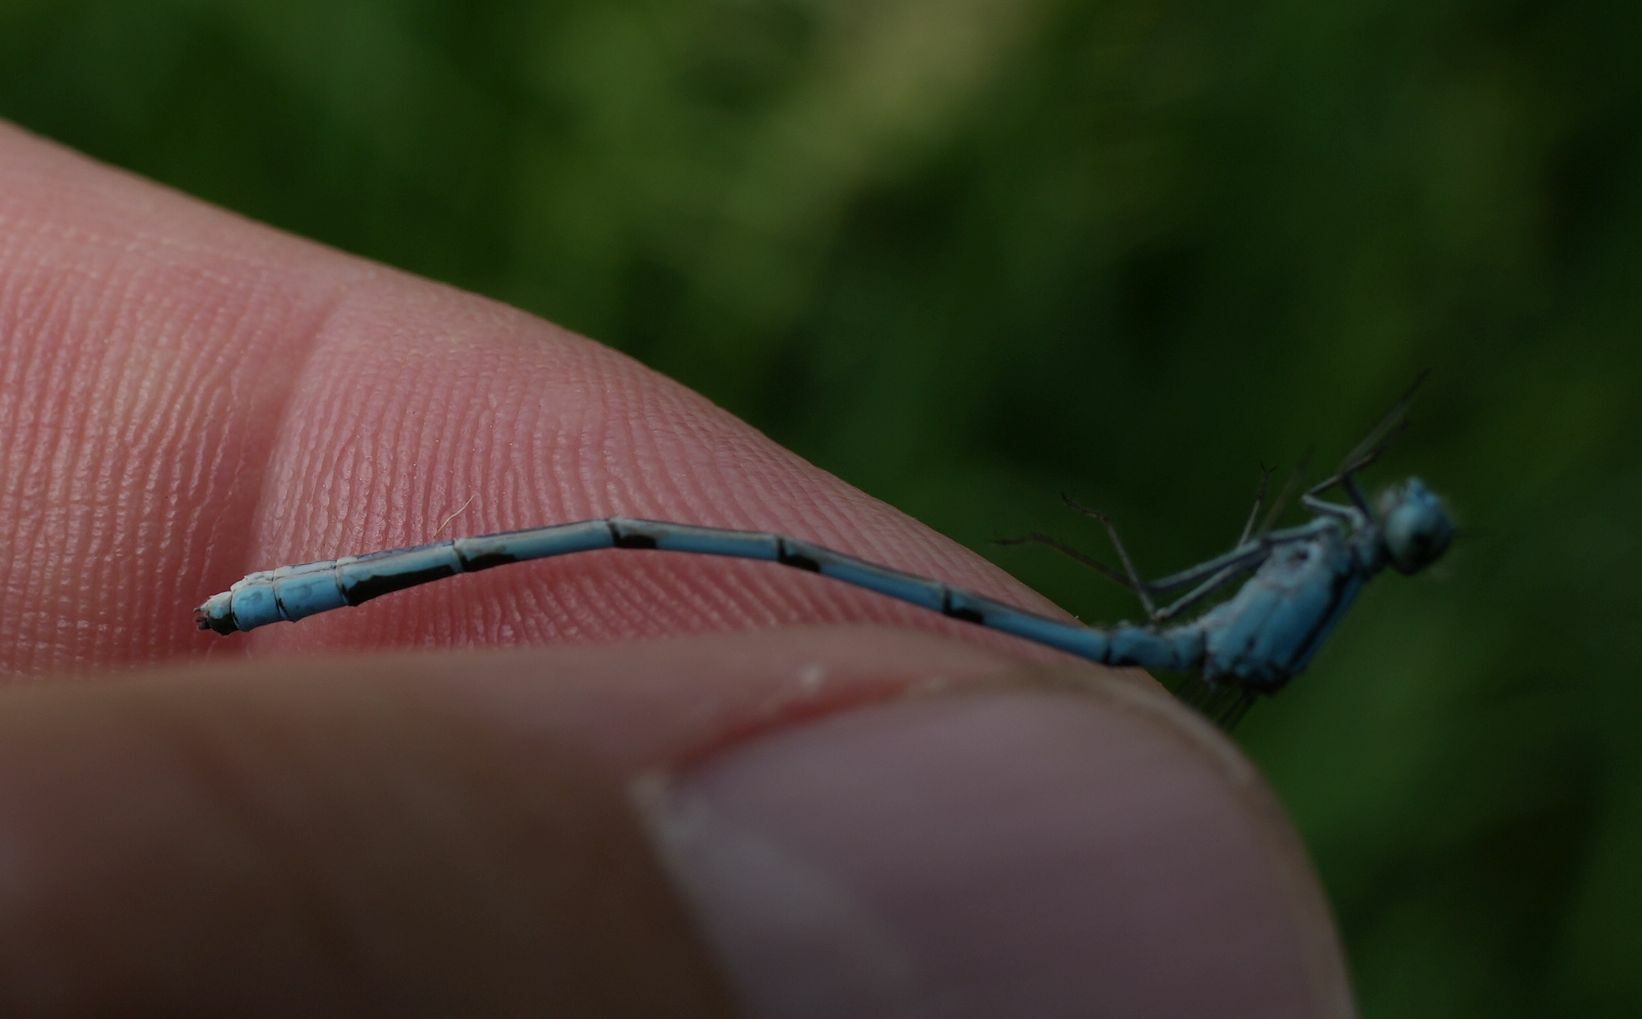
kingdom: Animalia
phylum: Arthropoda
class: Insecta
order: Odonata
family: Coenagrionidae
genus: Enallagma
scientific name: Enallagma ebrium
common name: Marsh bluet
